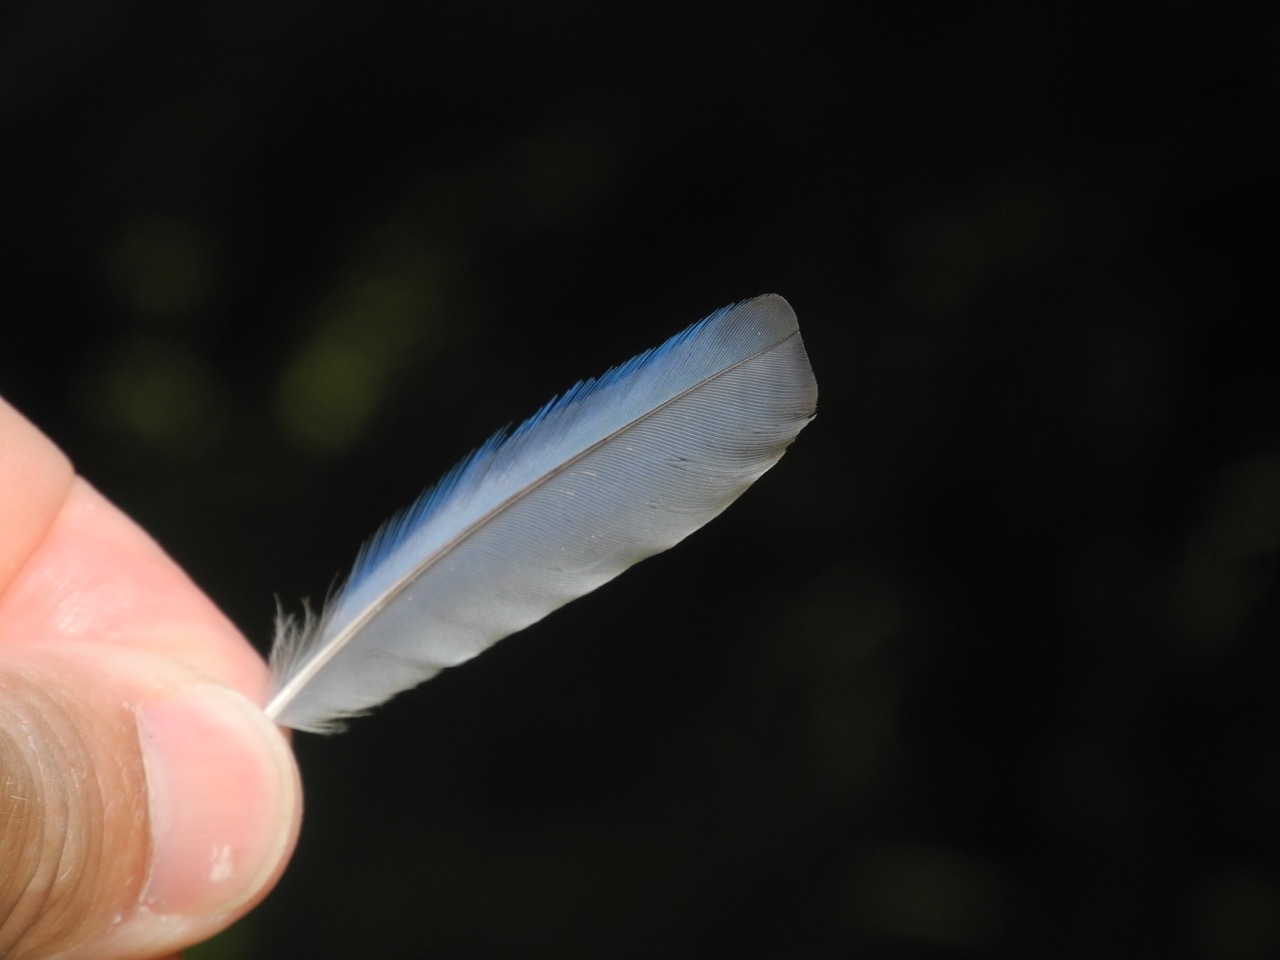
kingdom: Animalia
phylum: Chordata
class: Aves
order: Passeriformes
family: Turdidae
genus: Sialia
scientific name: Sialia sialis
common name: Eastern bluebird
